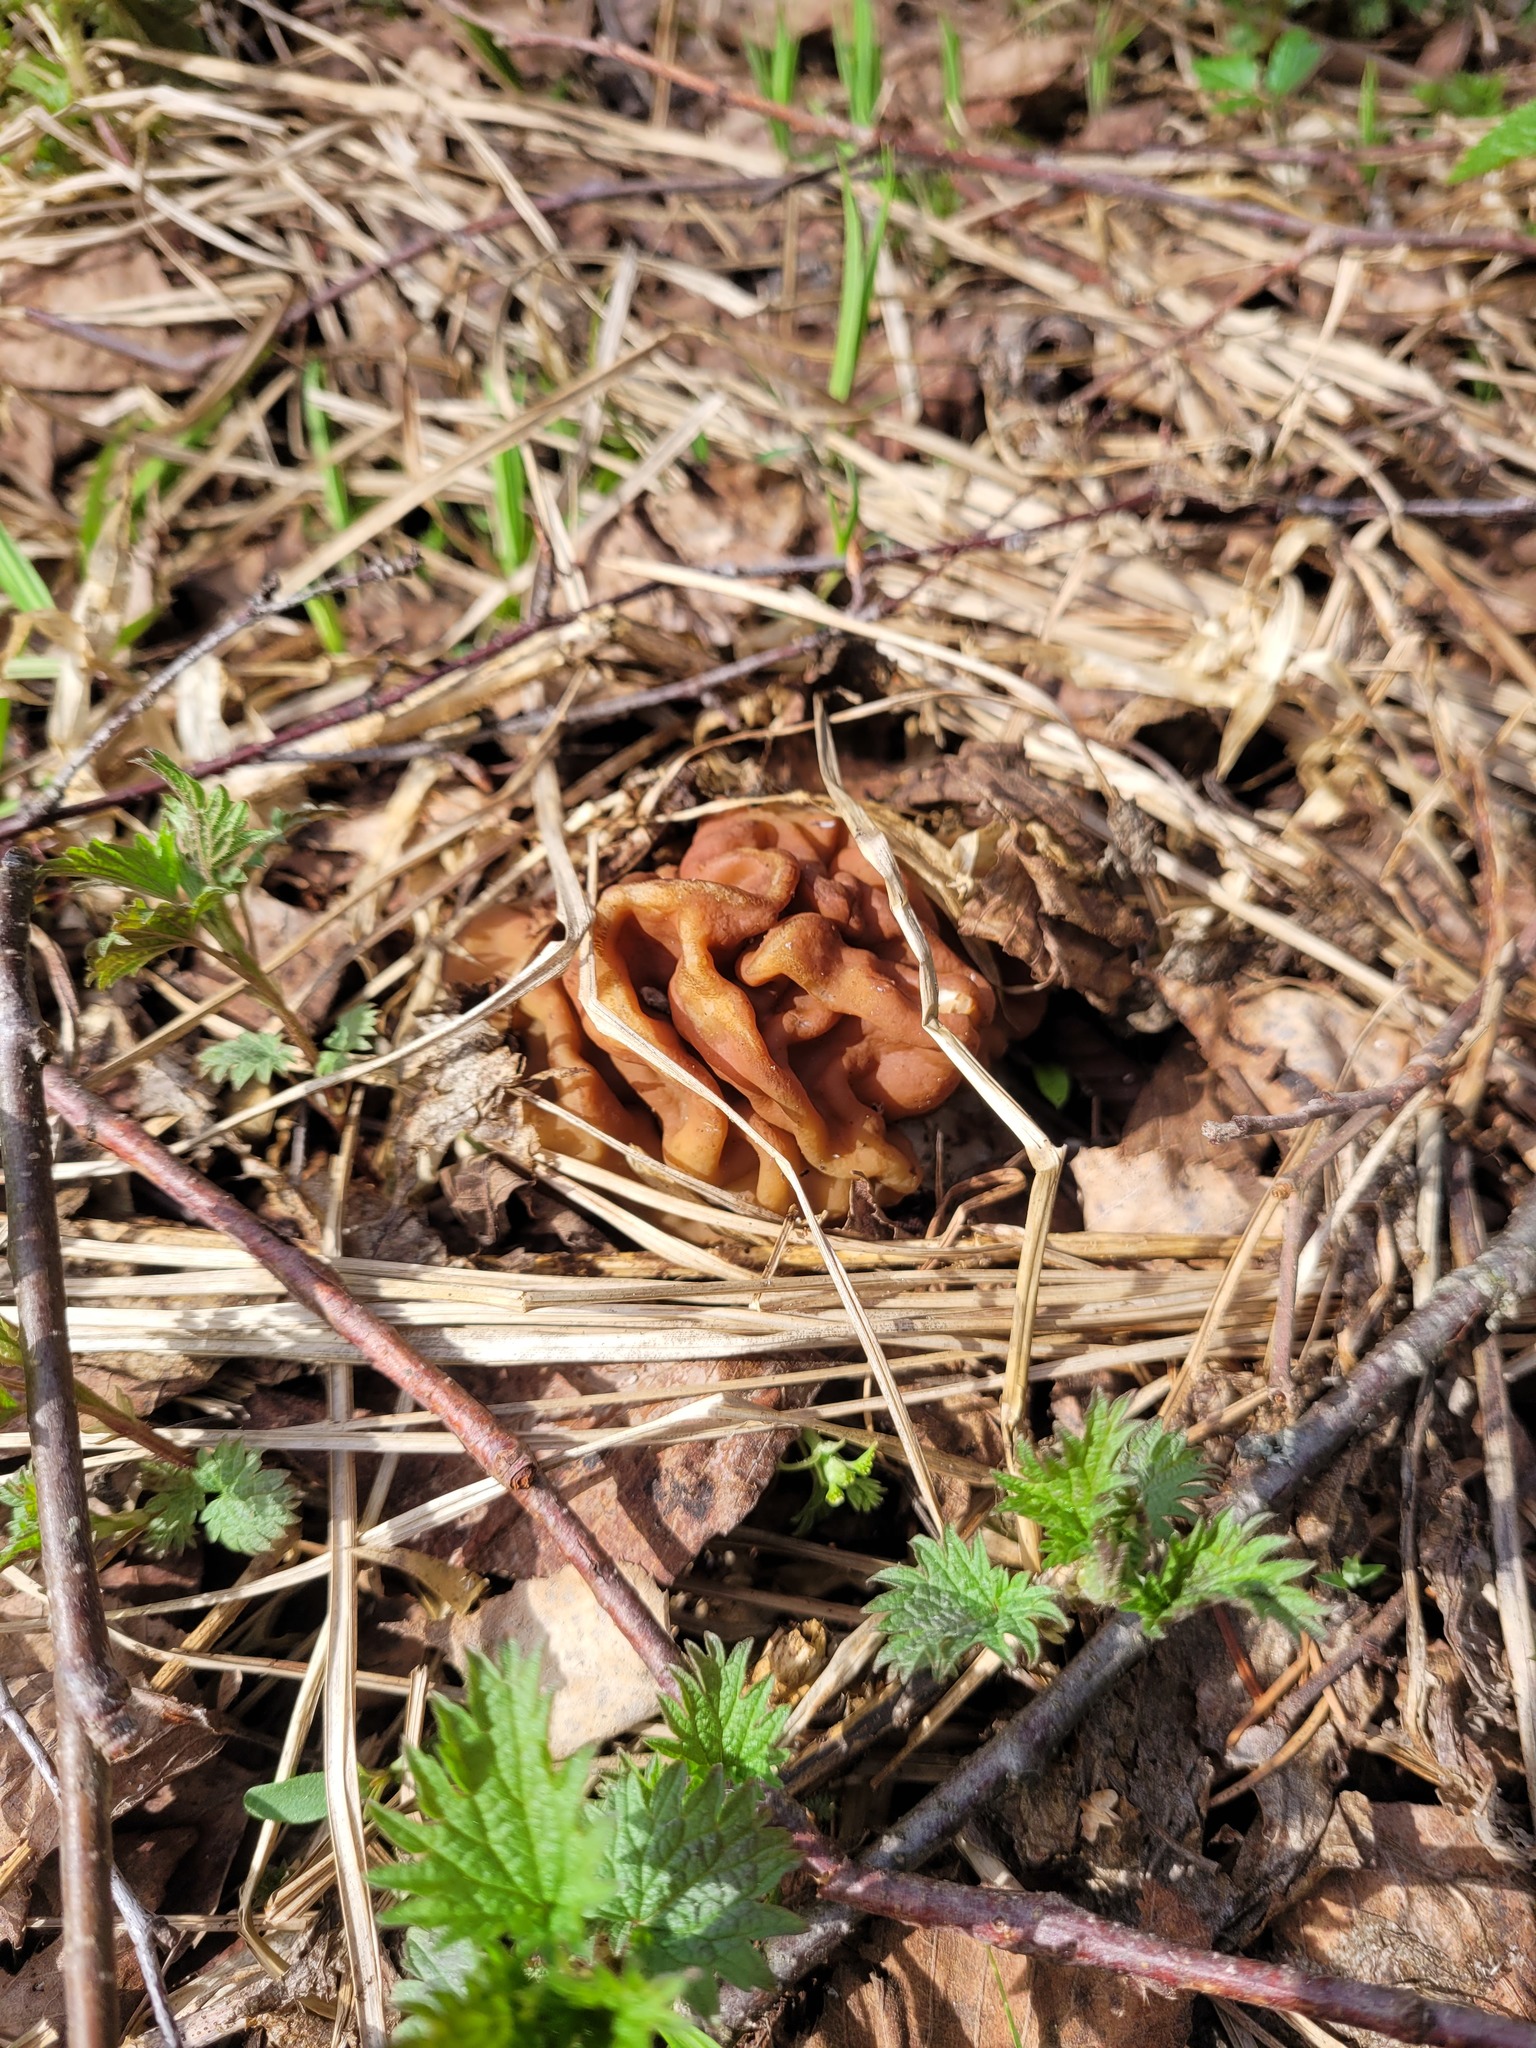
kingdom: Fungi
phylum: Ascomycota
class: Pezizomycetes
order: Pezizales
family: Discinaceae
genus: Gyromitra
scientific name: Gyromitra gigas
